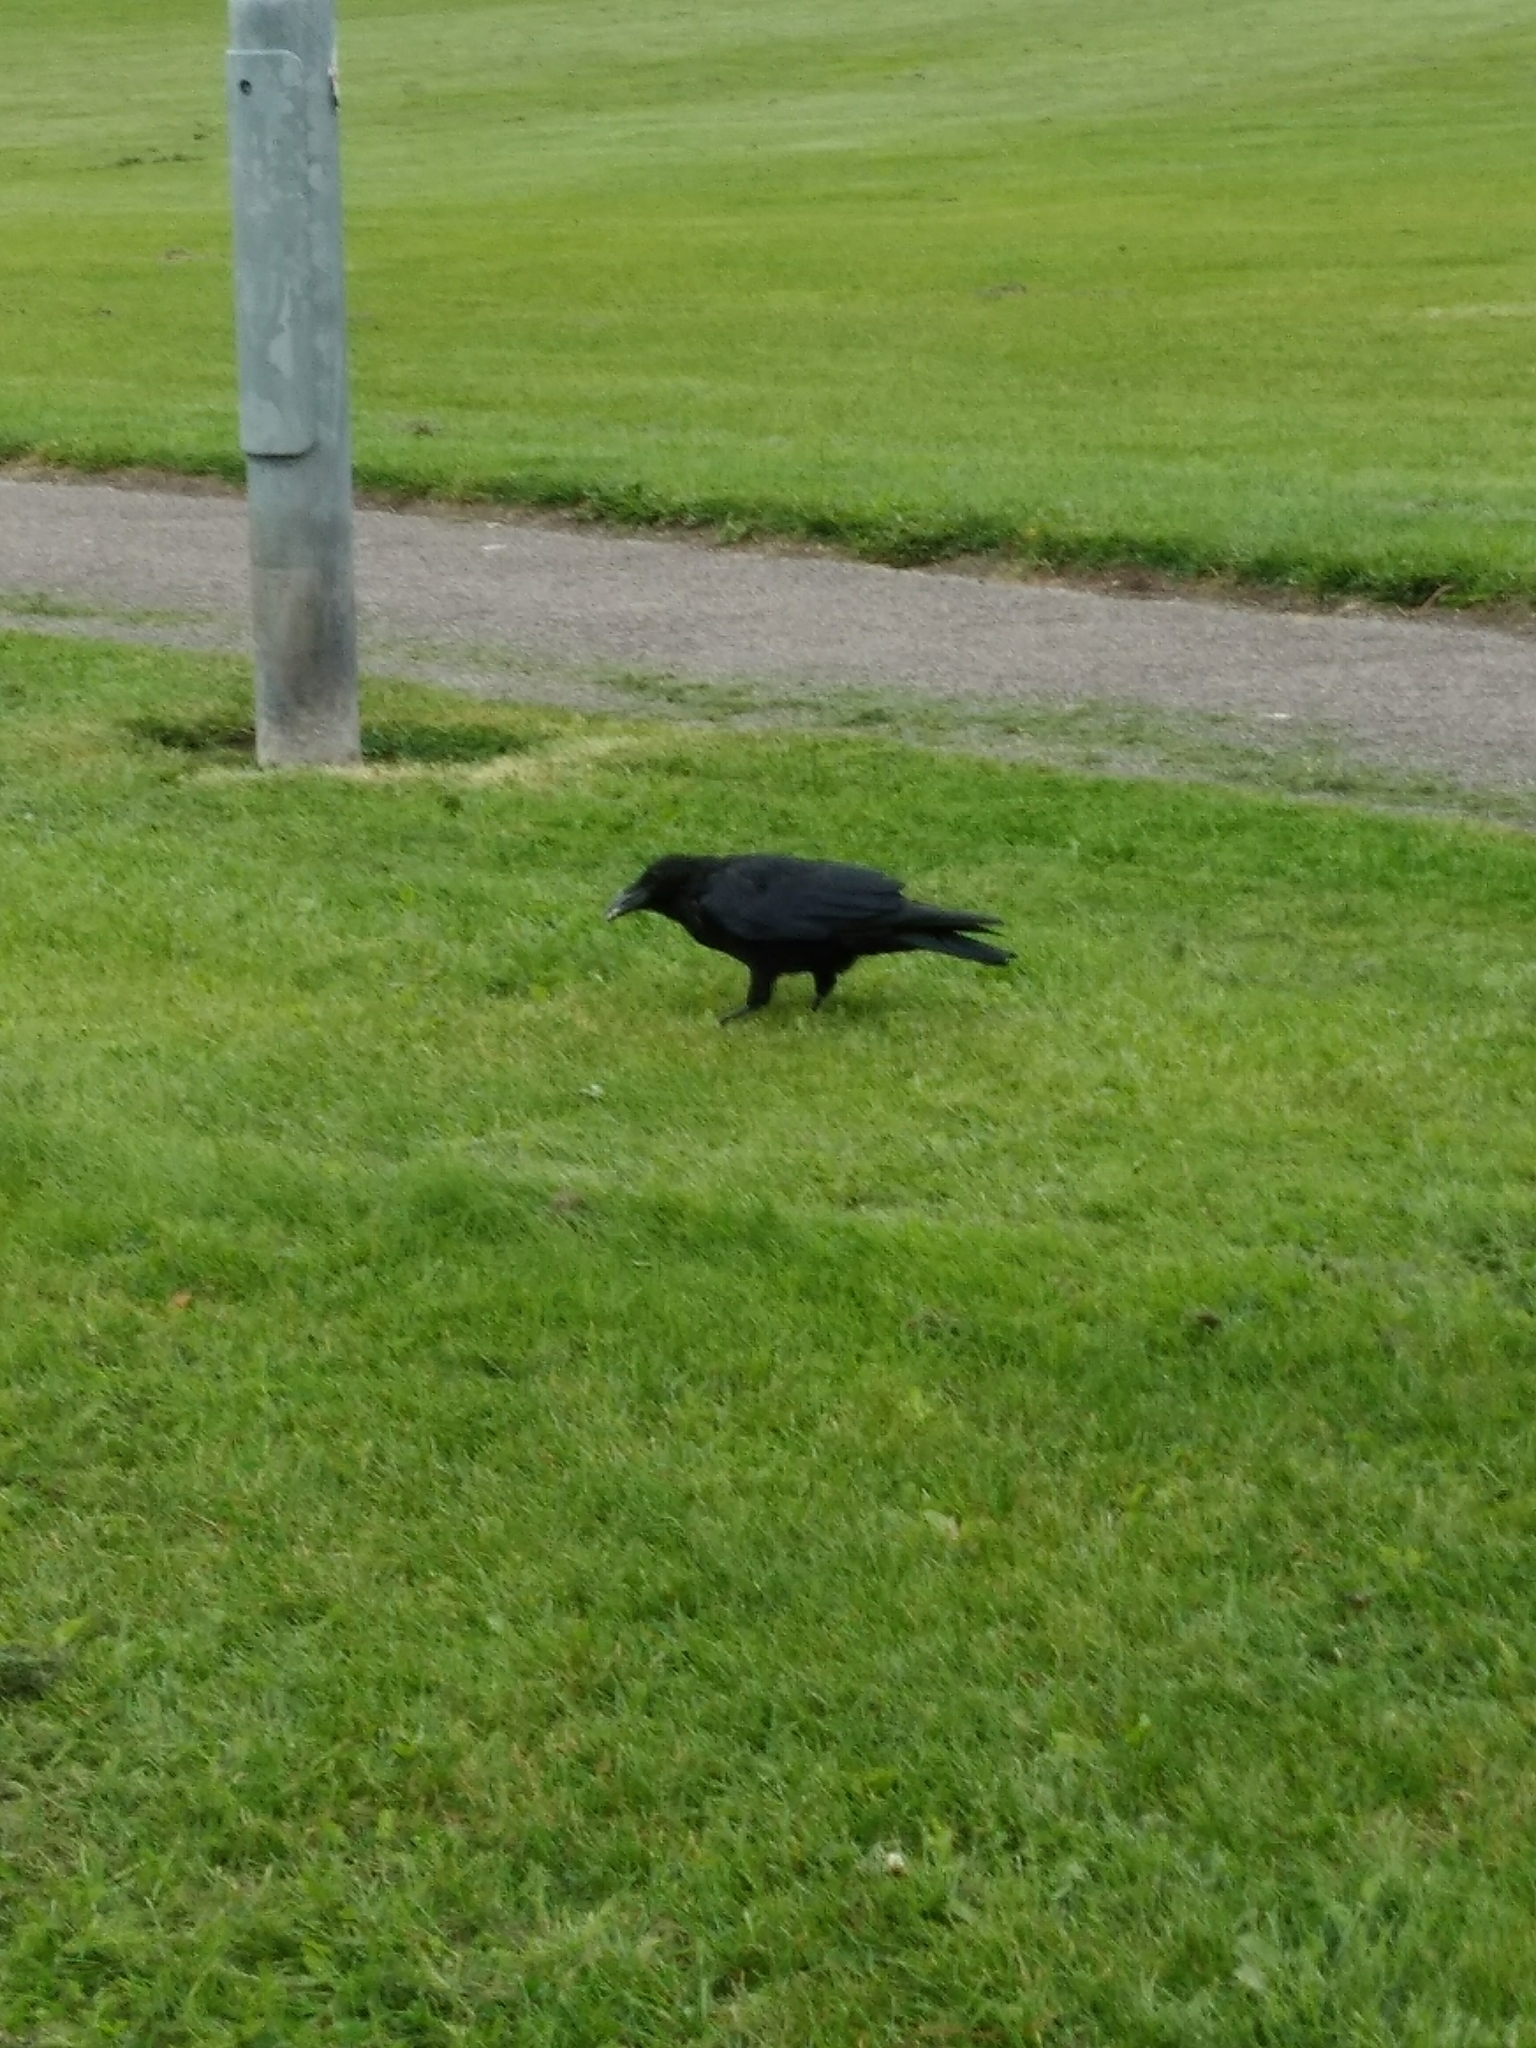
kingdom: Animalia
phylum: Chordata
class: Aves
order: Passeriformes
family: Corvidae
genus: Corvus
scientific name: Corvus corone
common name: Carrion crow
